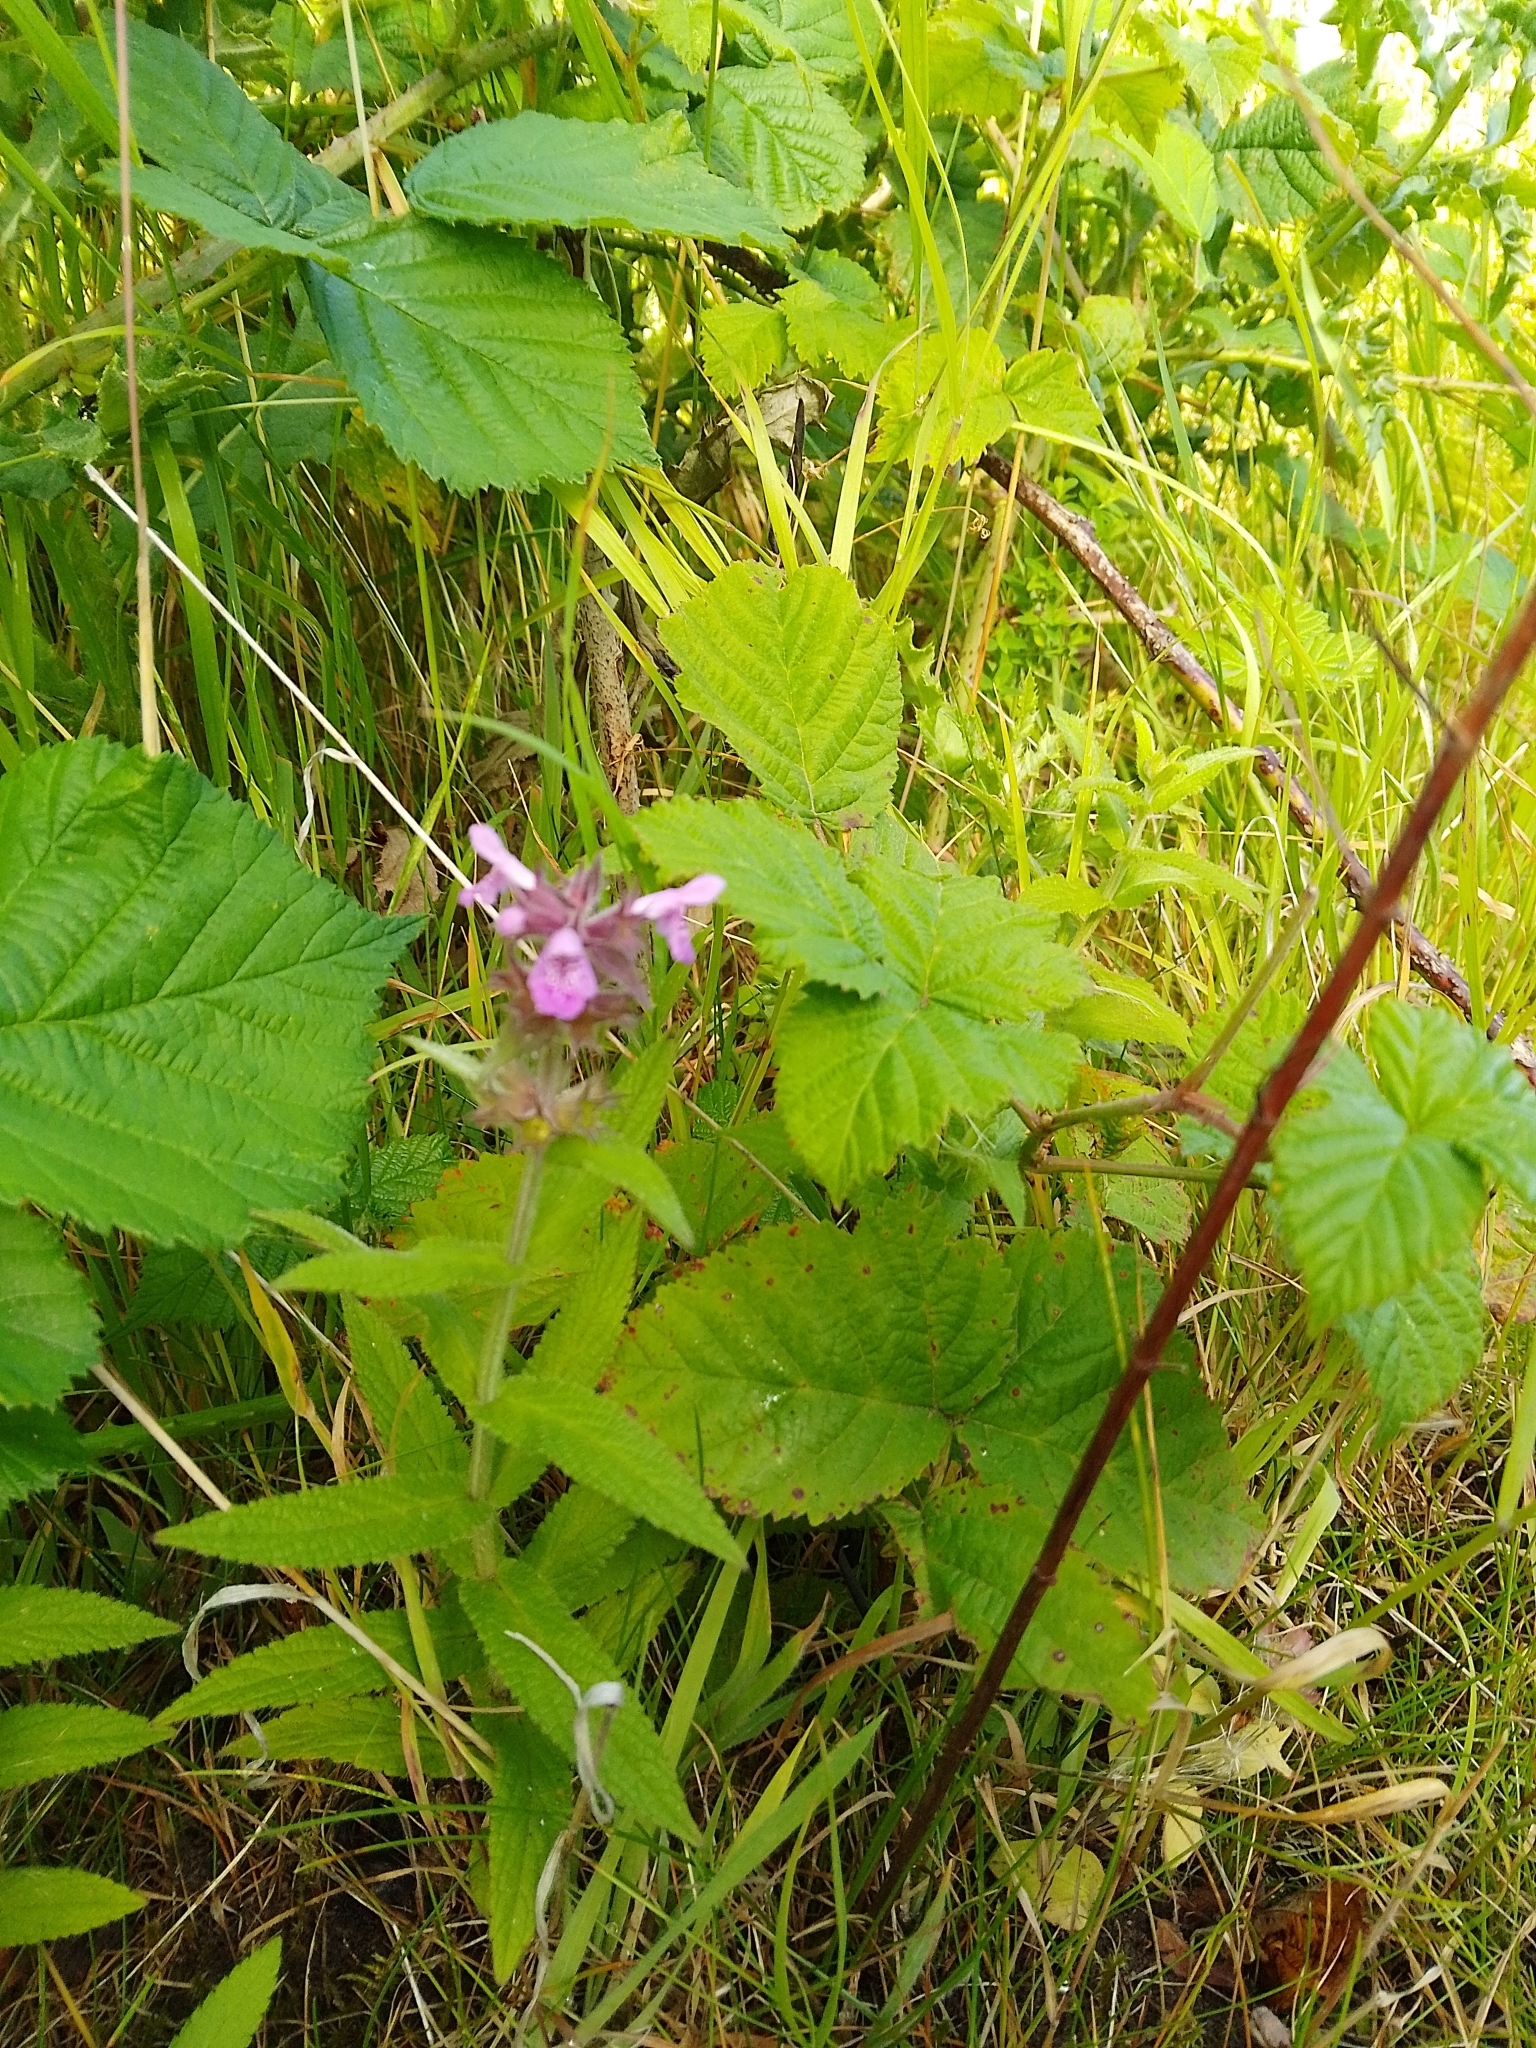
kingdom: Plantae
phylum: Tracheophyta
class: Magnoliopsida
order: Lamiales
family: Lamiaceae
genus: Stachys
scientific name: Stachys palustris
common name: Marsh woundwort
